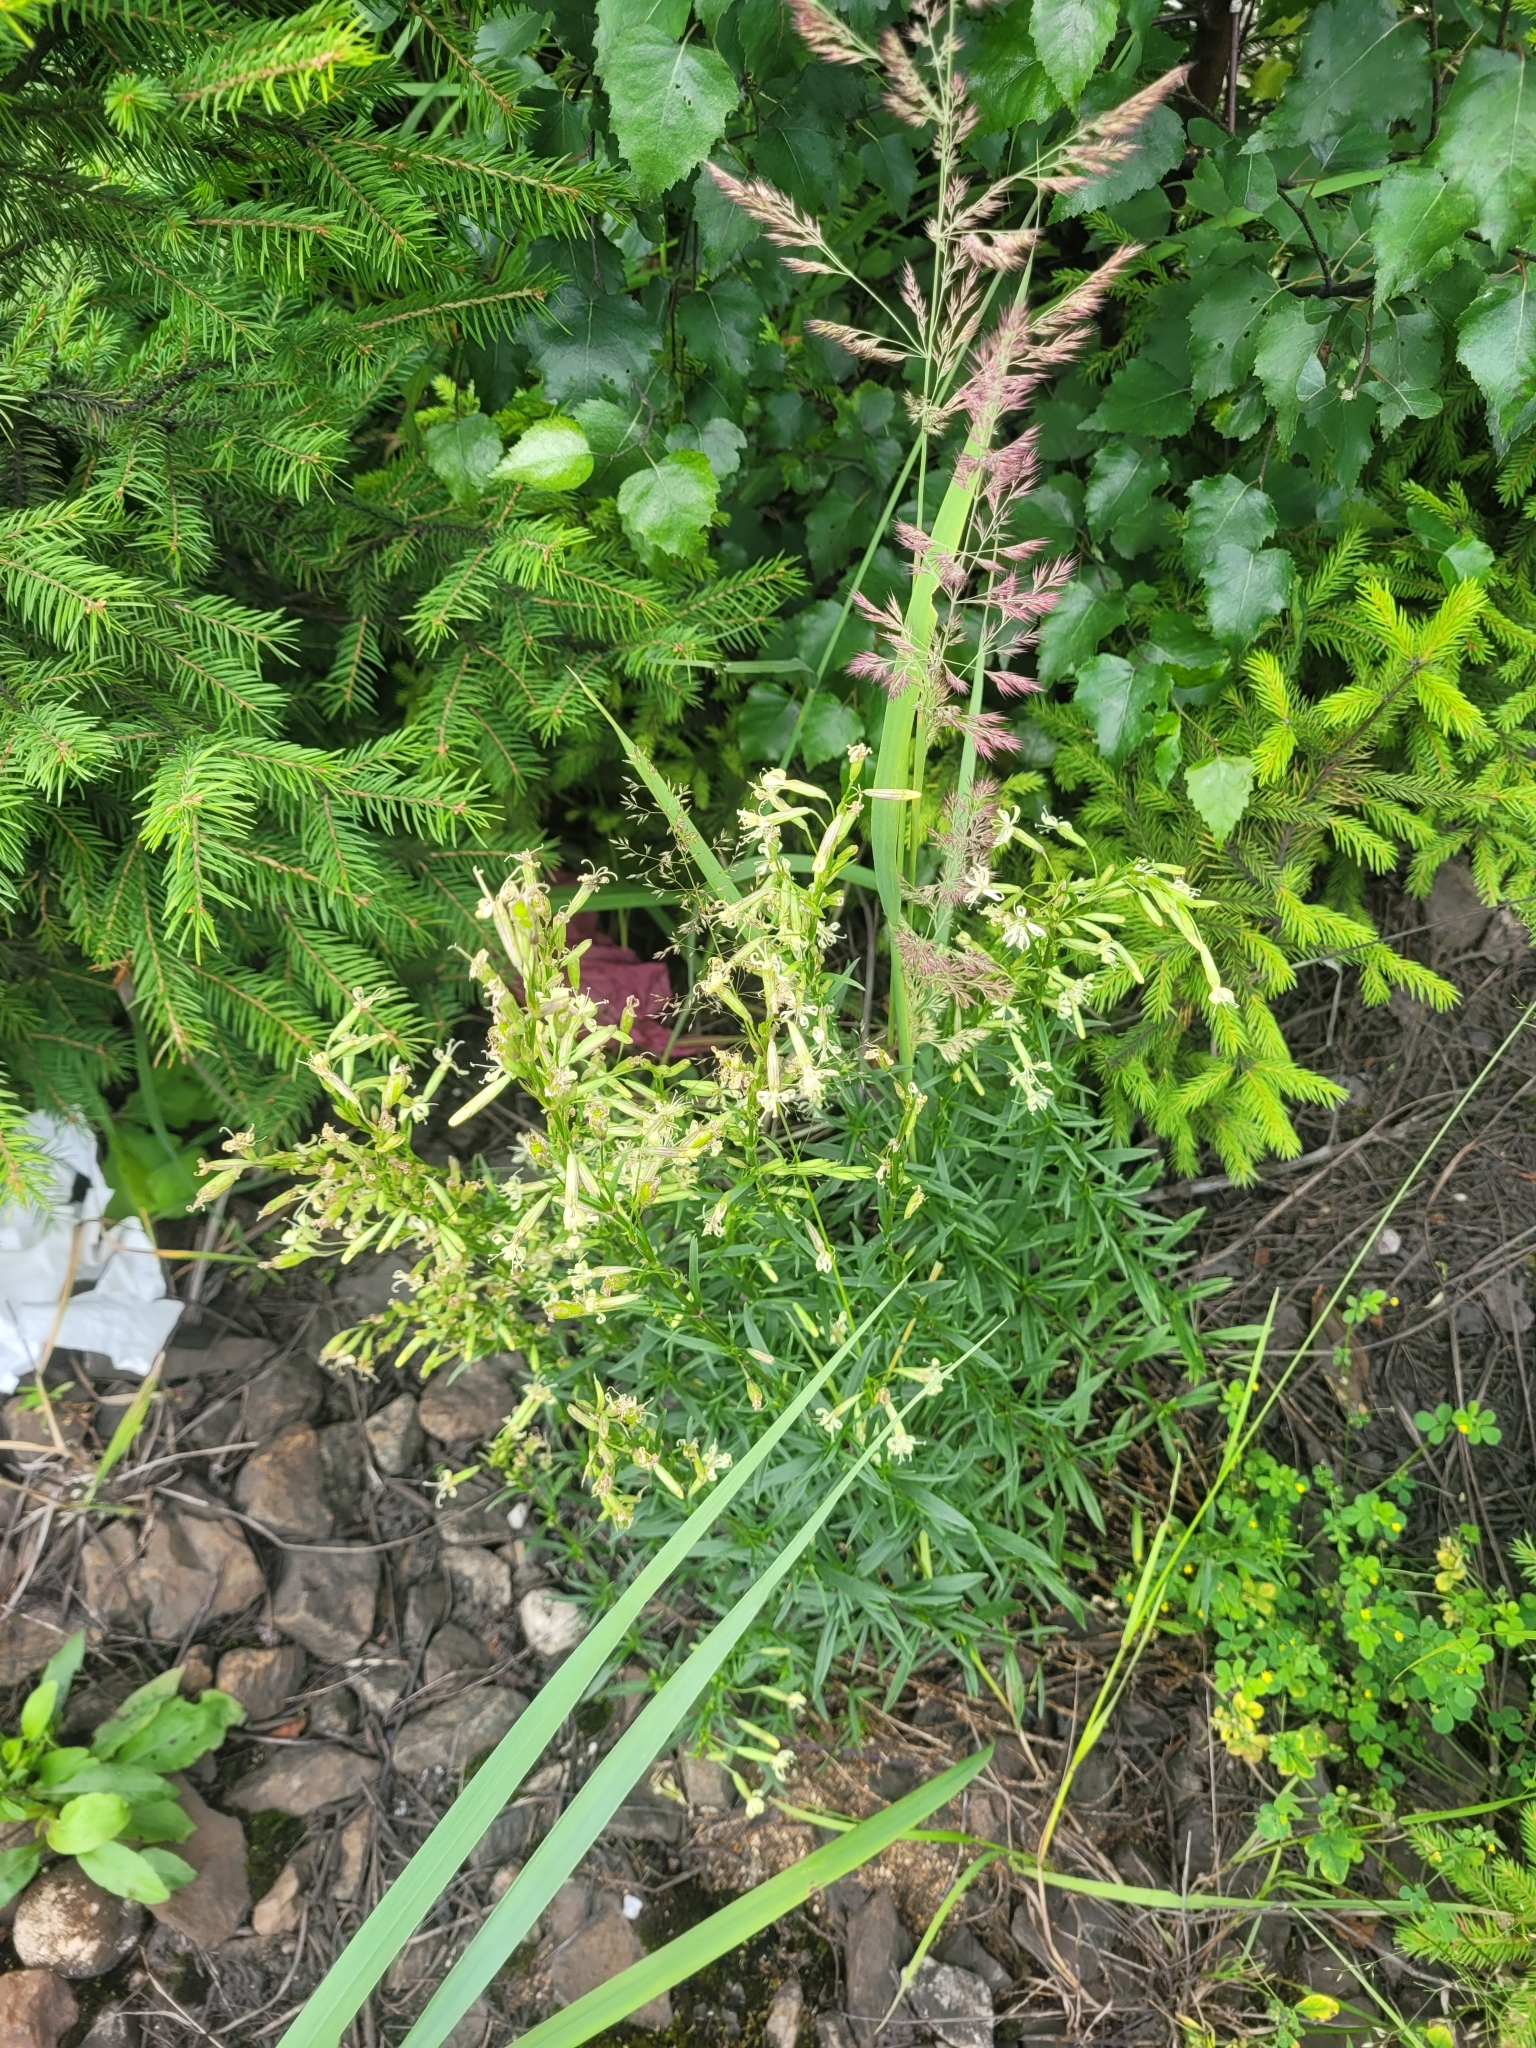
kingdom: Plantae
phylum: Tracheophyta
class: Magnoliopsida
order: Caryophyllales
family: Caryophyllaceae
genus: Silene
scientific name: Silene tatarica
